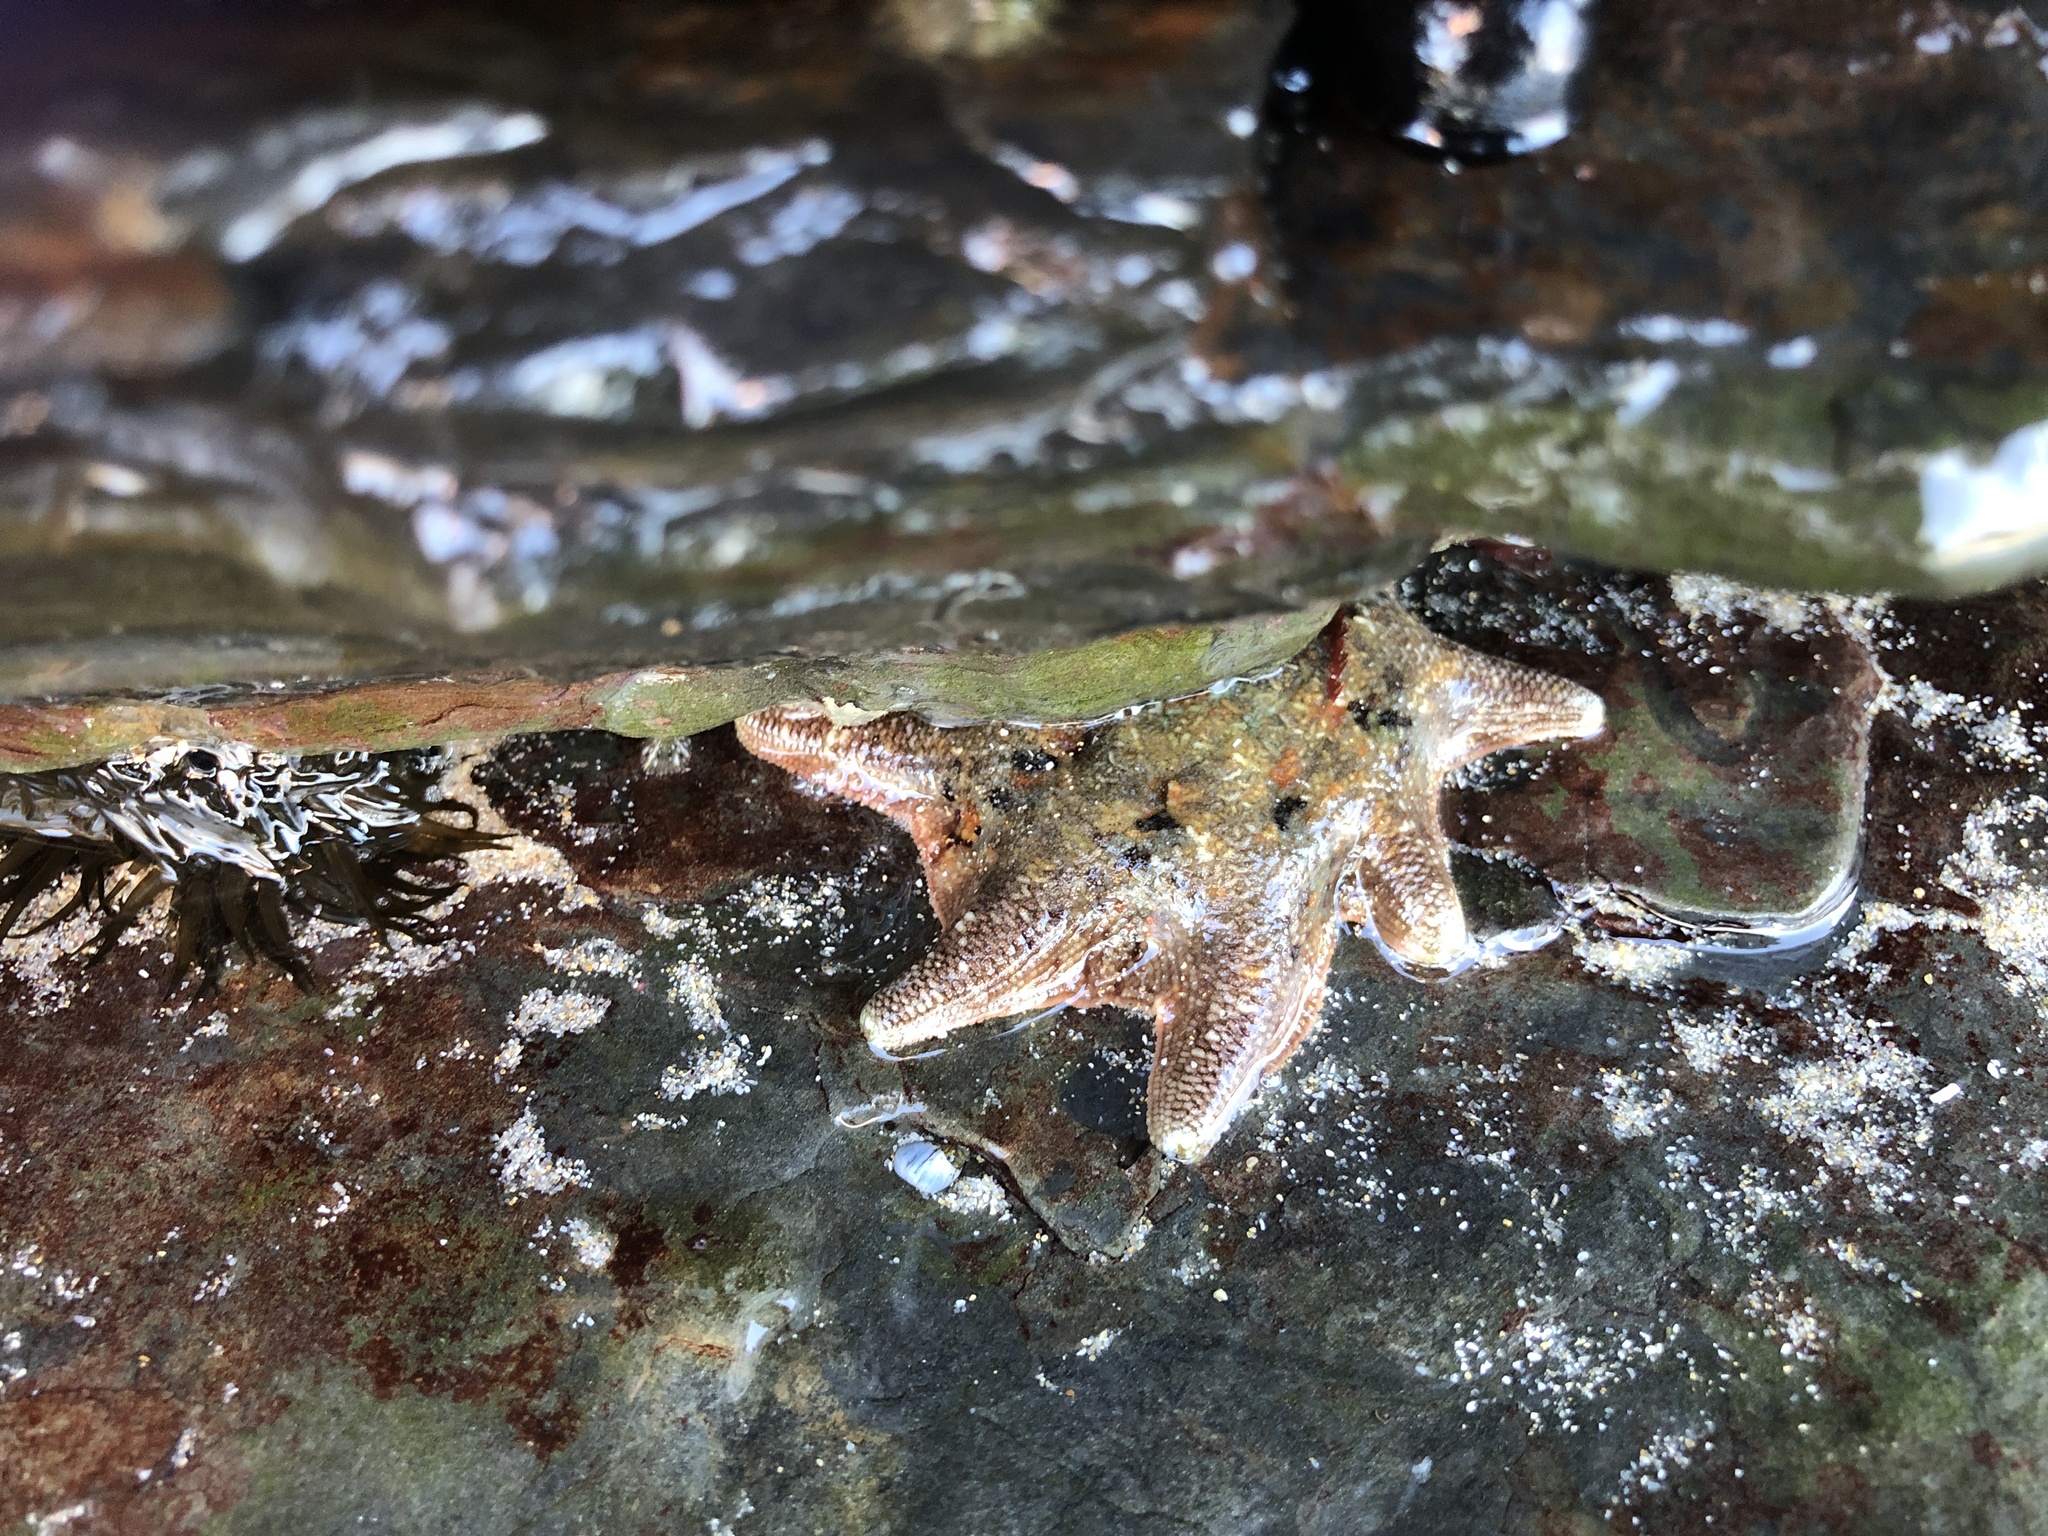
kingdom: Animalia
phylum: Echinodermata
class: Asteroidea
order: Valvatida
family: Asterinidae
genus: Meridiastra
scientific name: Meridiastra calcar
